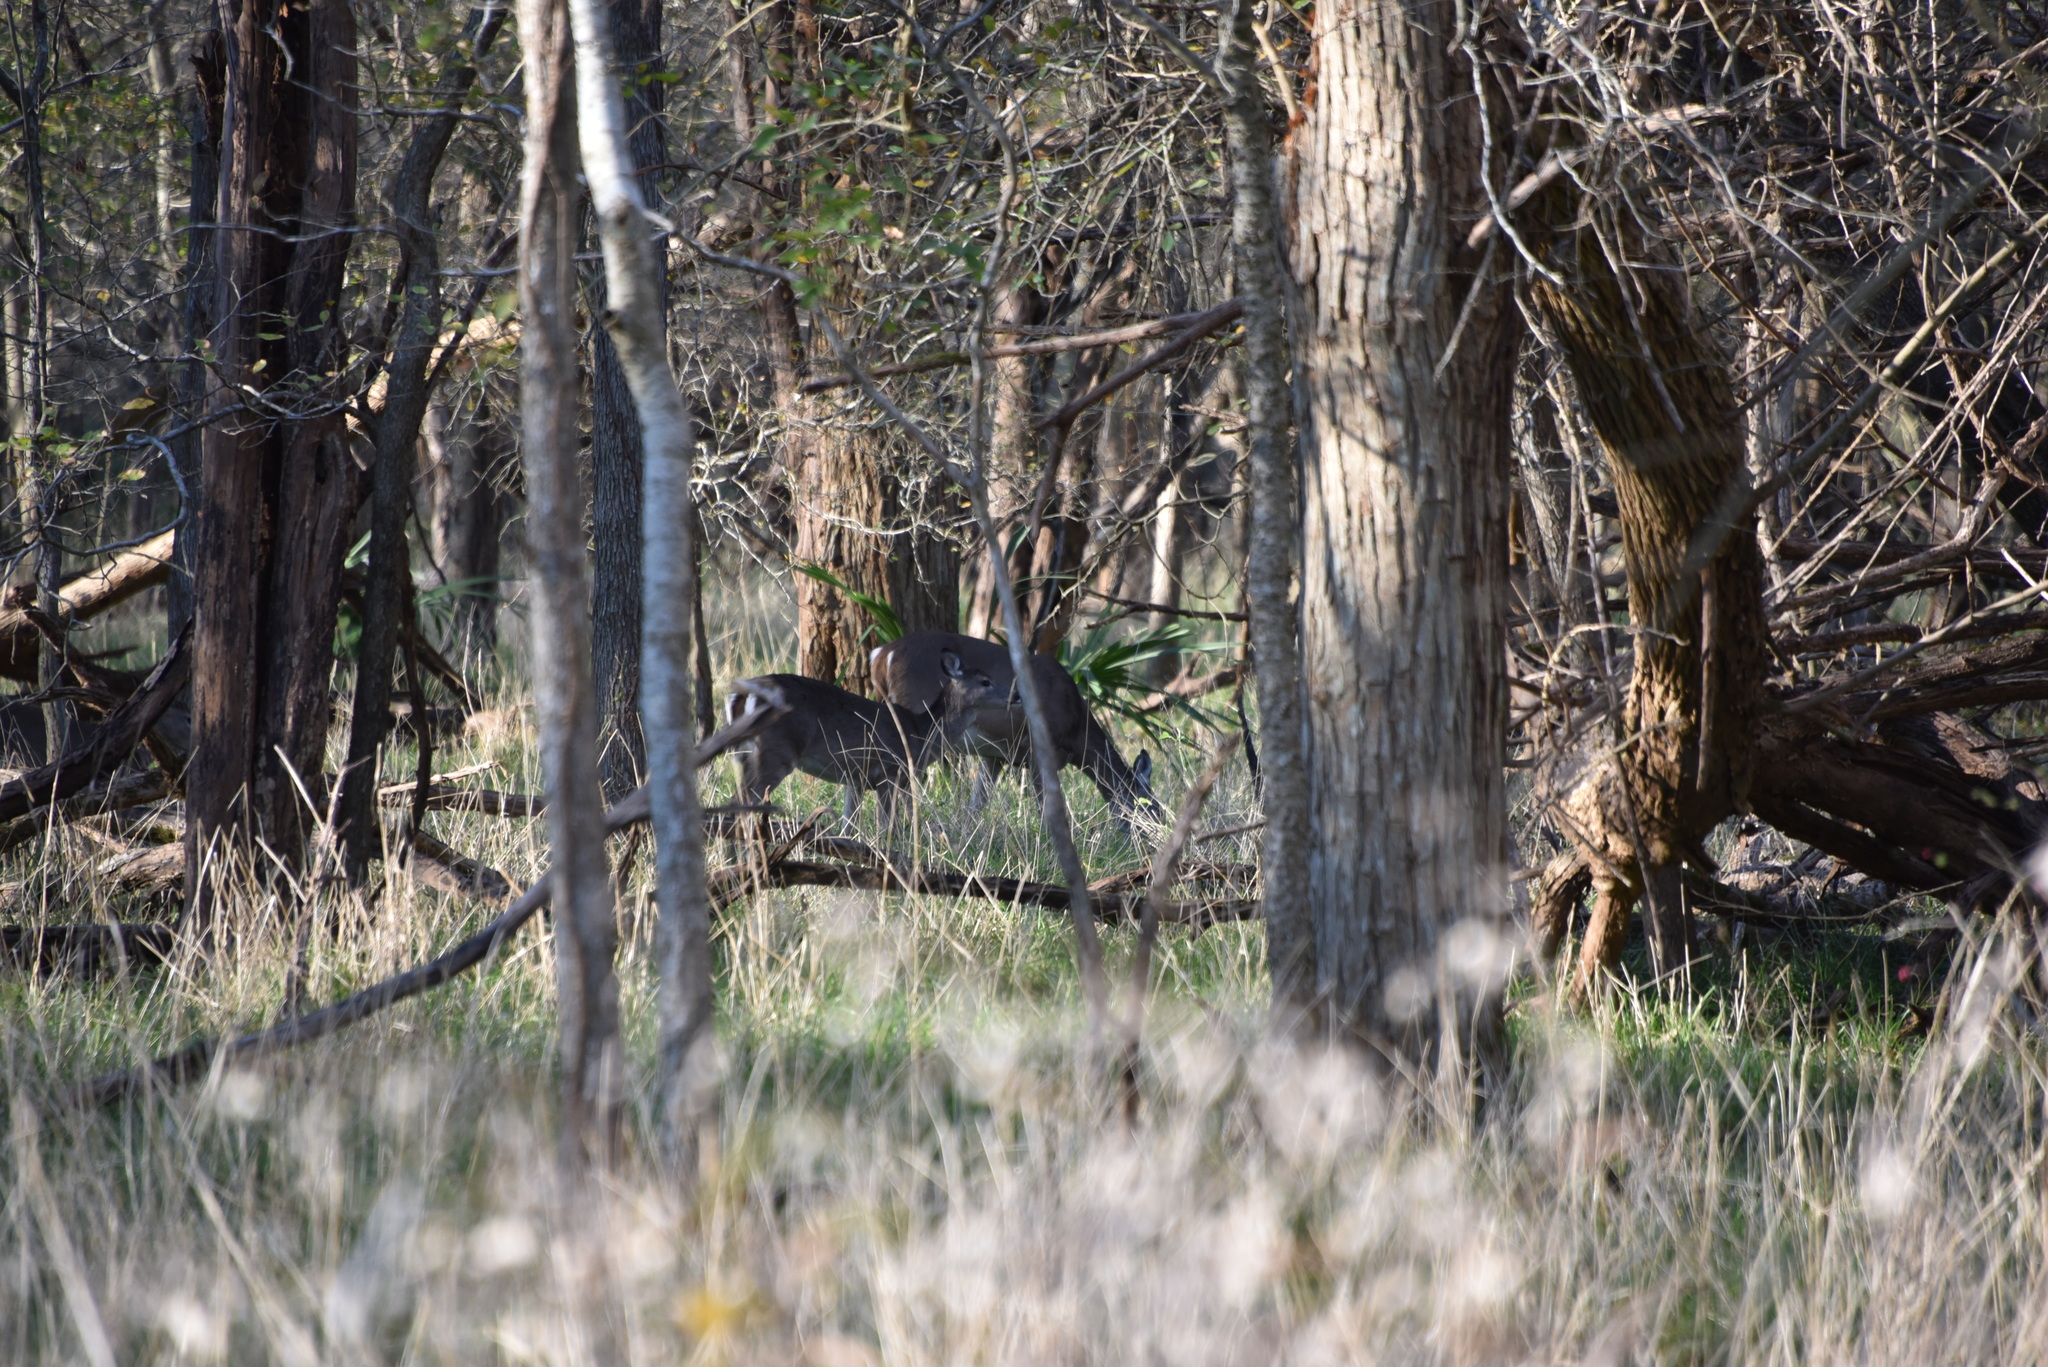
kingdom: Animalia
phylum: Chordata
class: Mammalia
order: Artiodactyla
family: Cervidae
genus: Odocoileus
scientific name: Odocoileus virginianus
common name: White-tailed deer
